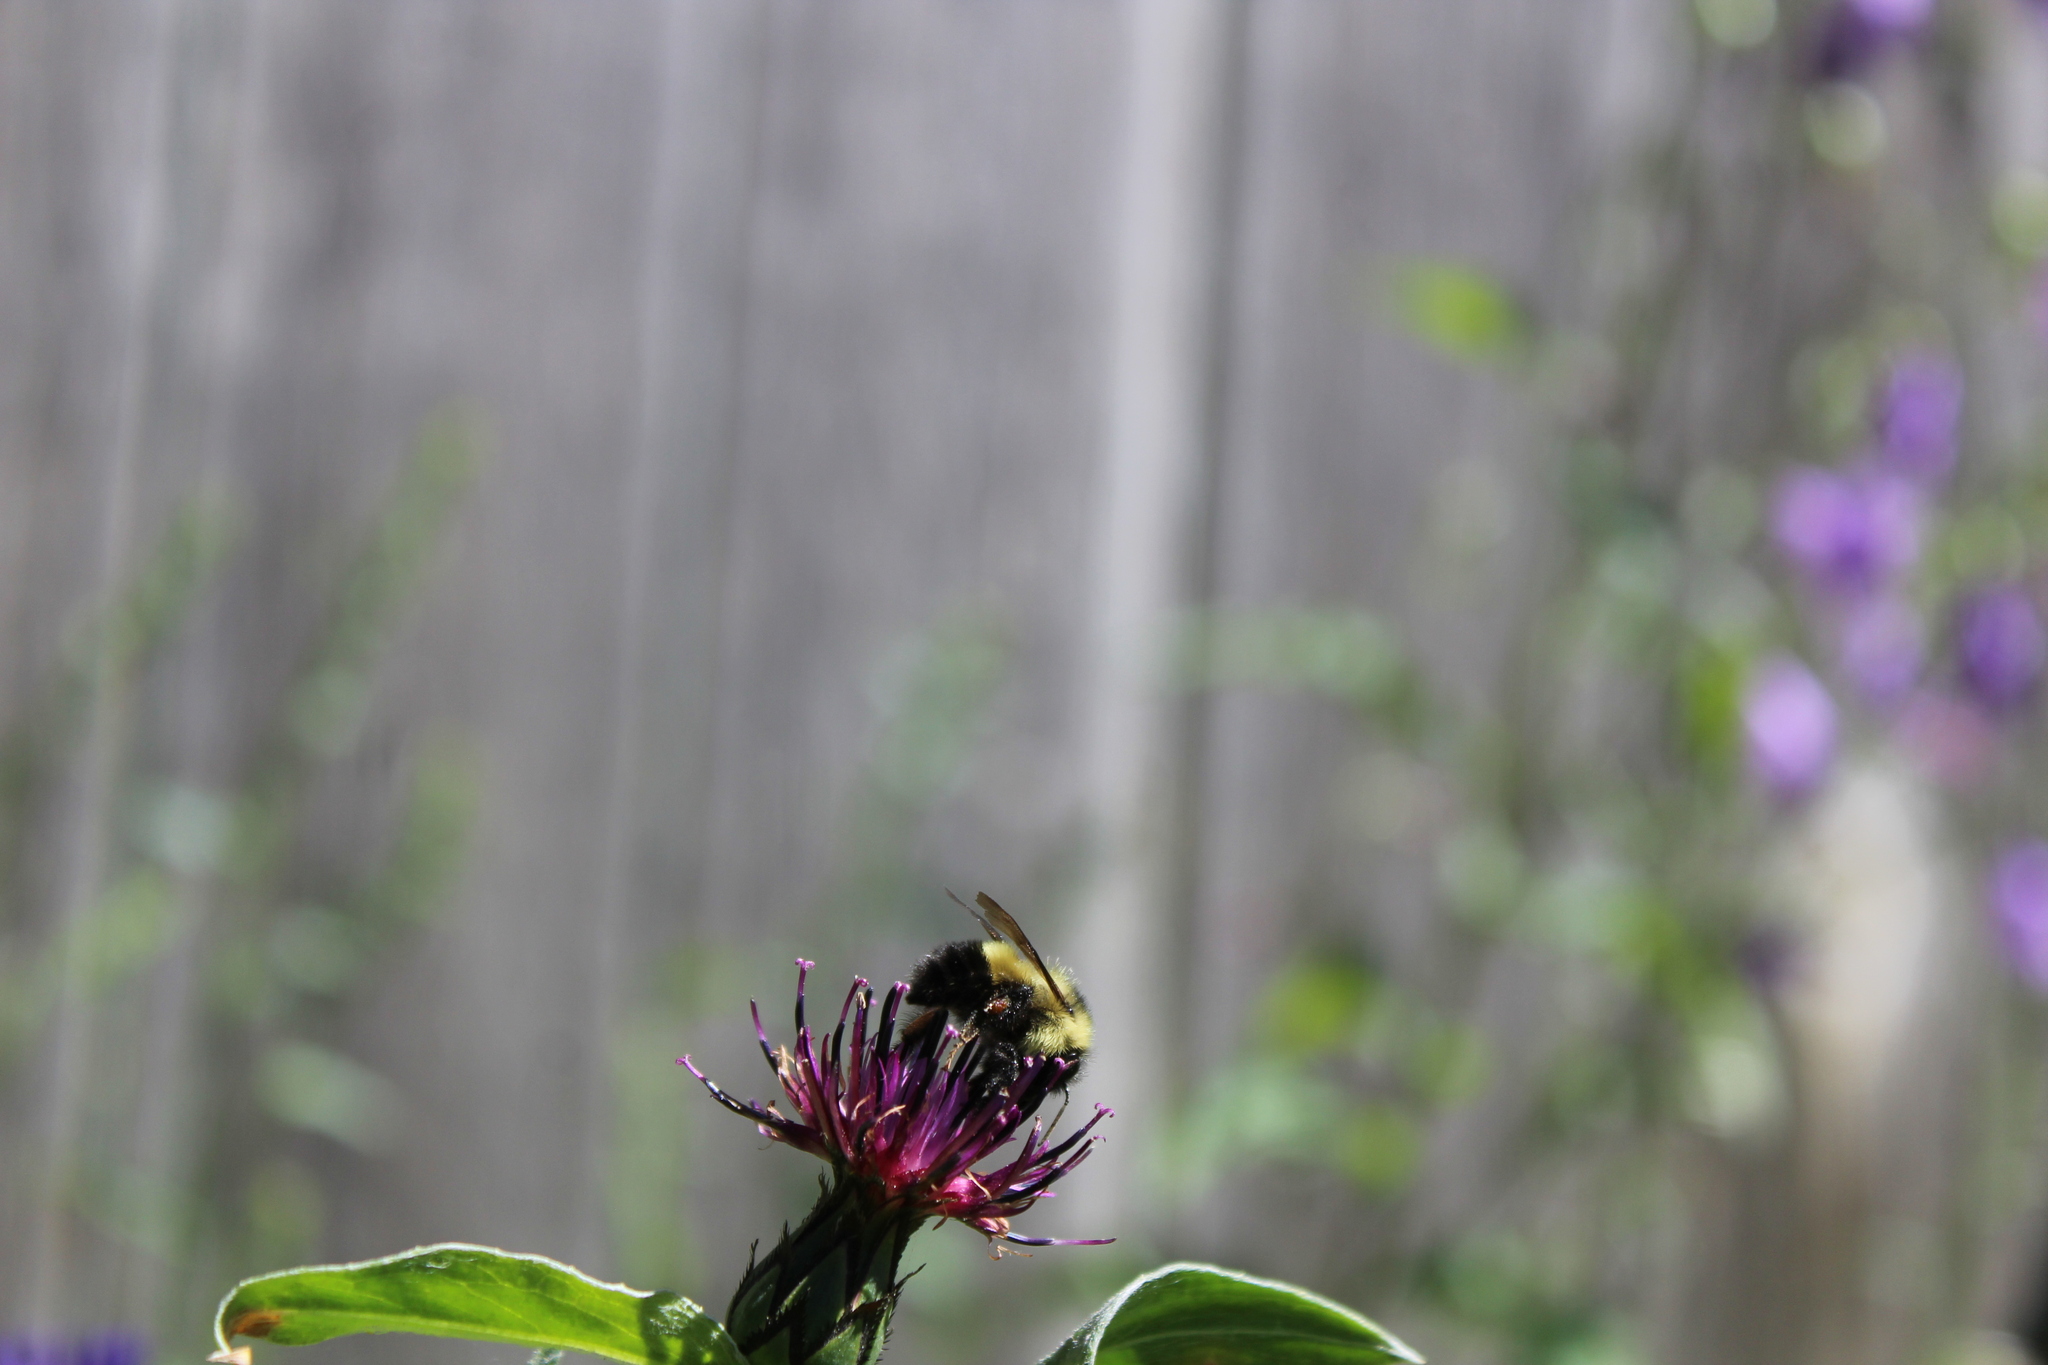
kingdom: Animalia
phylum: Arthropoda
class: Insecta
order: Hymenoptera
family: Apidae
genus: Bombus
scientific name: Bombus vagans
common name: Half-black bumble bee
